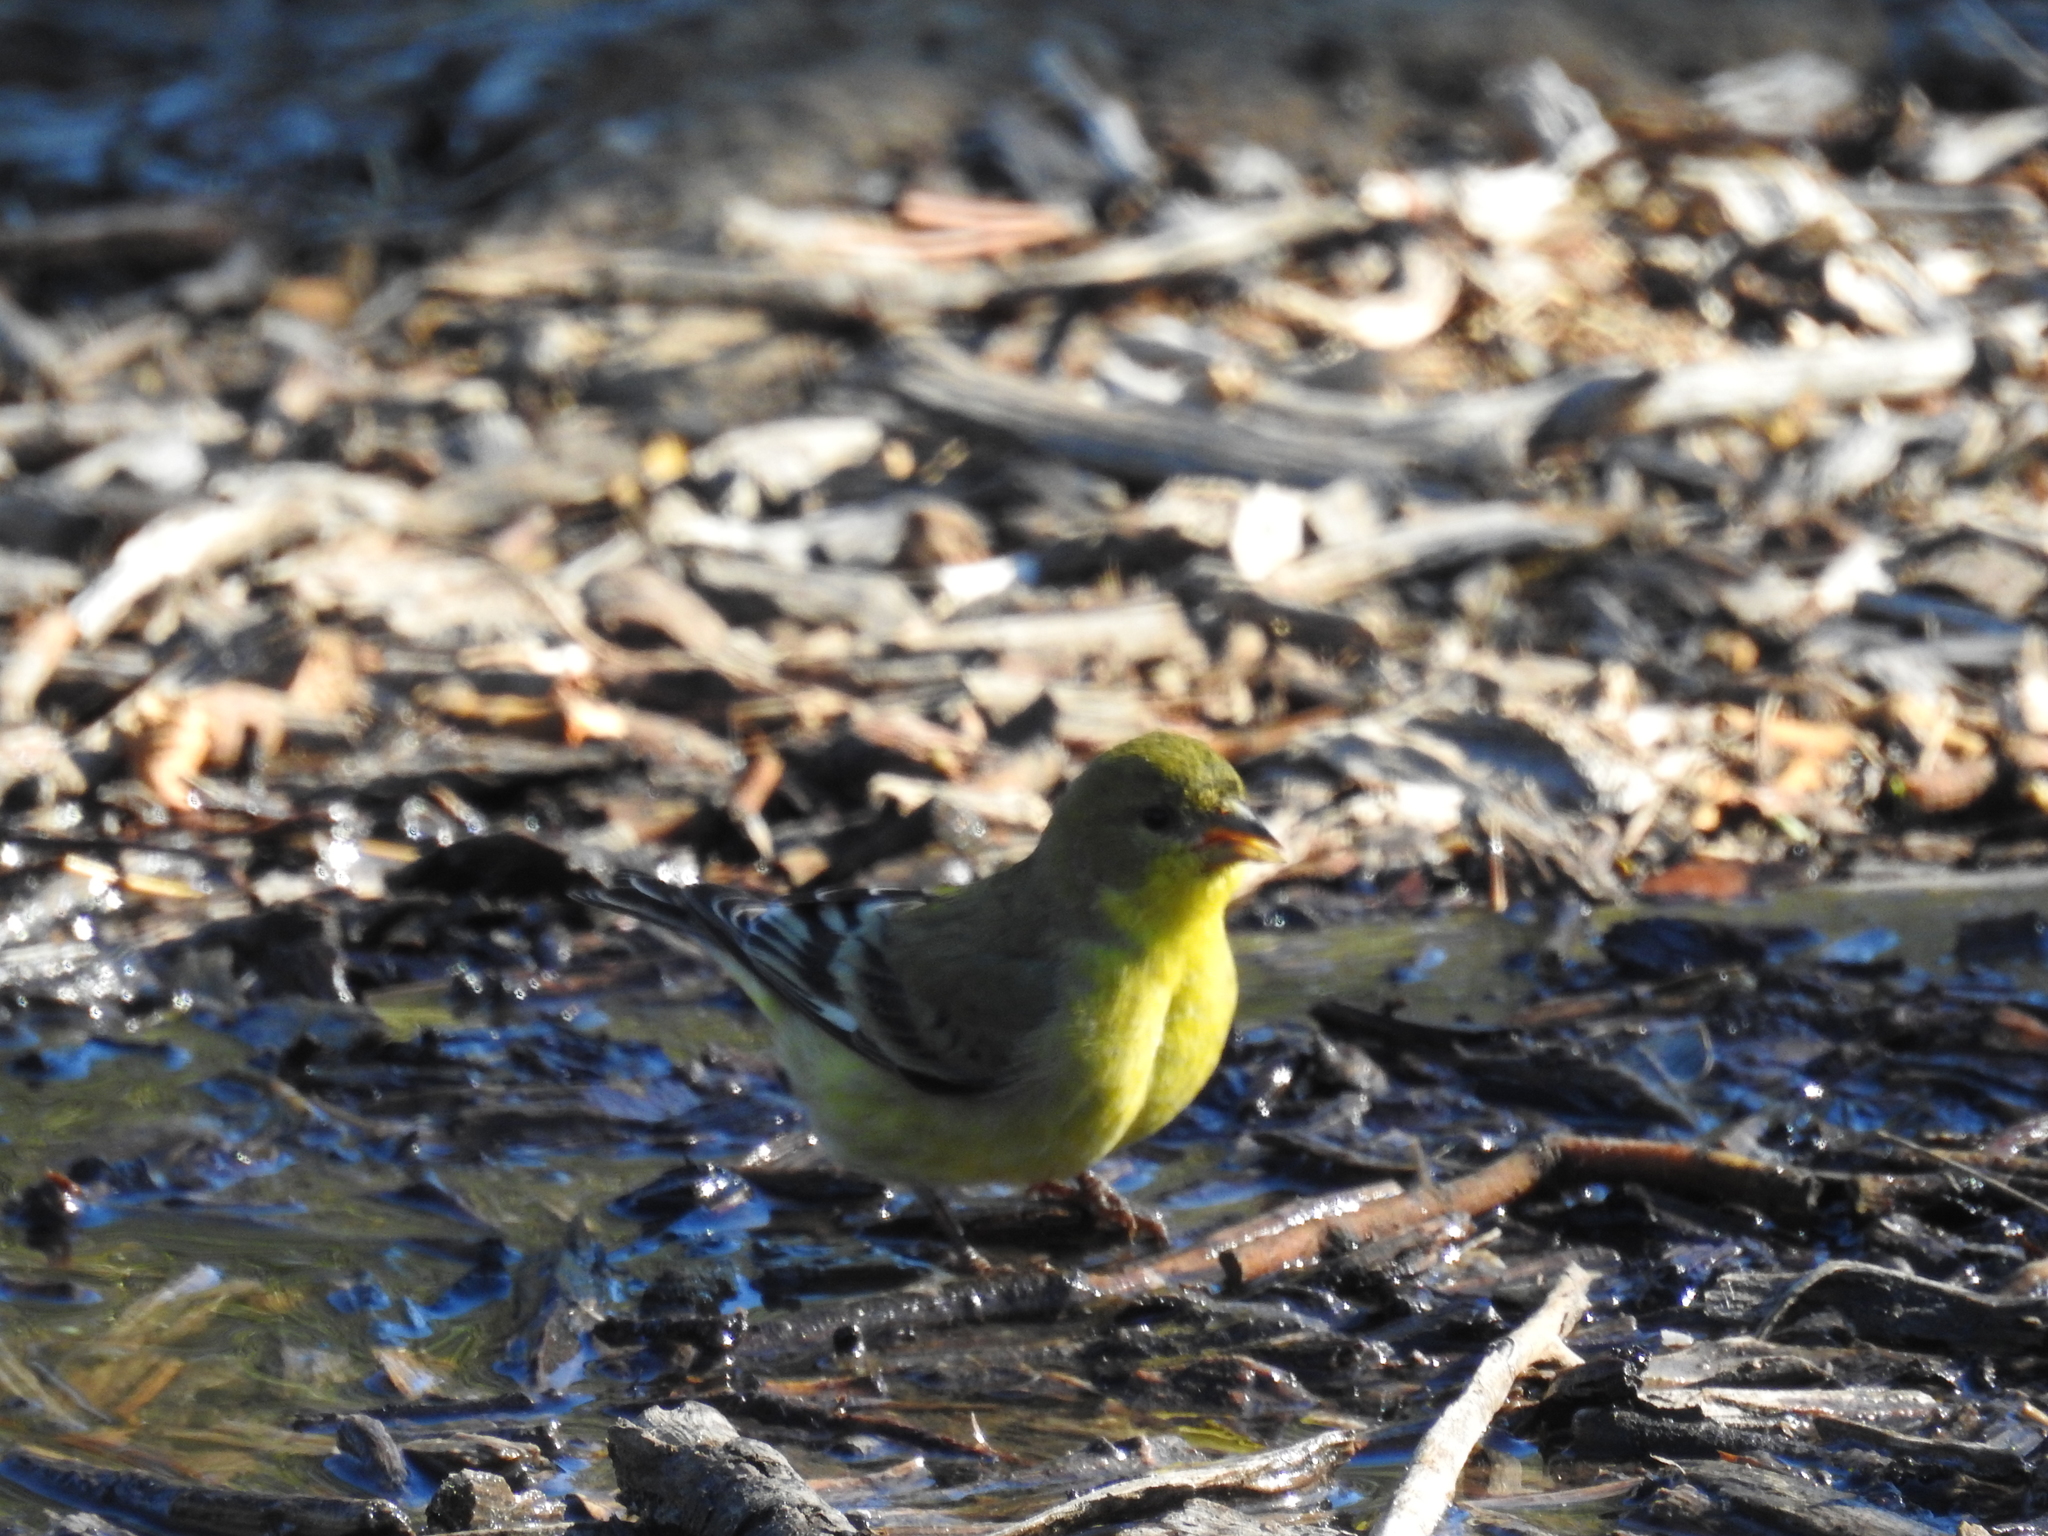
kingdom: Animalia
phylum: Chordata
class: Aves
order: Passeriformes
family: Fringillidae
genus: Spinus
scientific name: Spinus psaltria
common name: Lesser goldfinch
